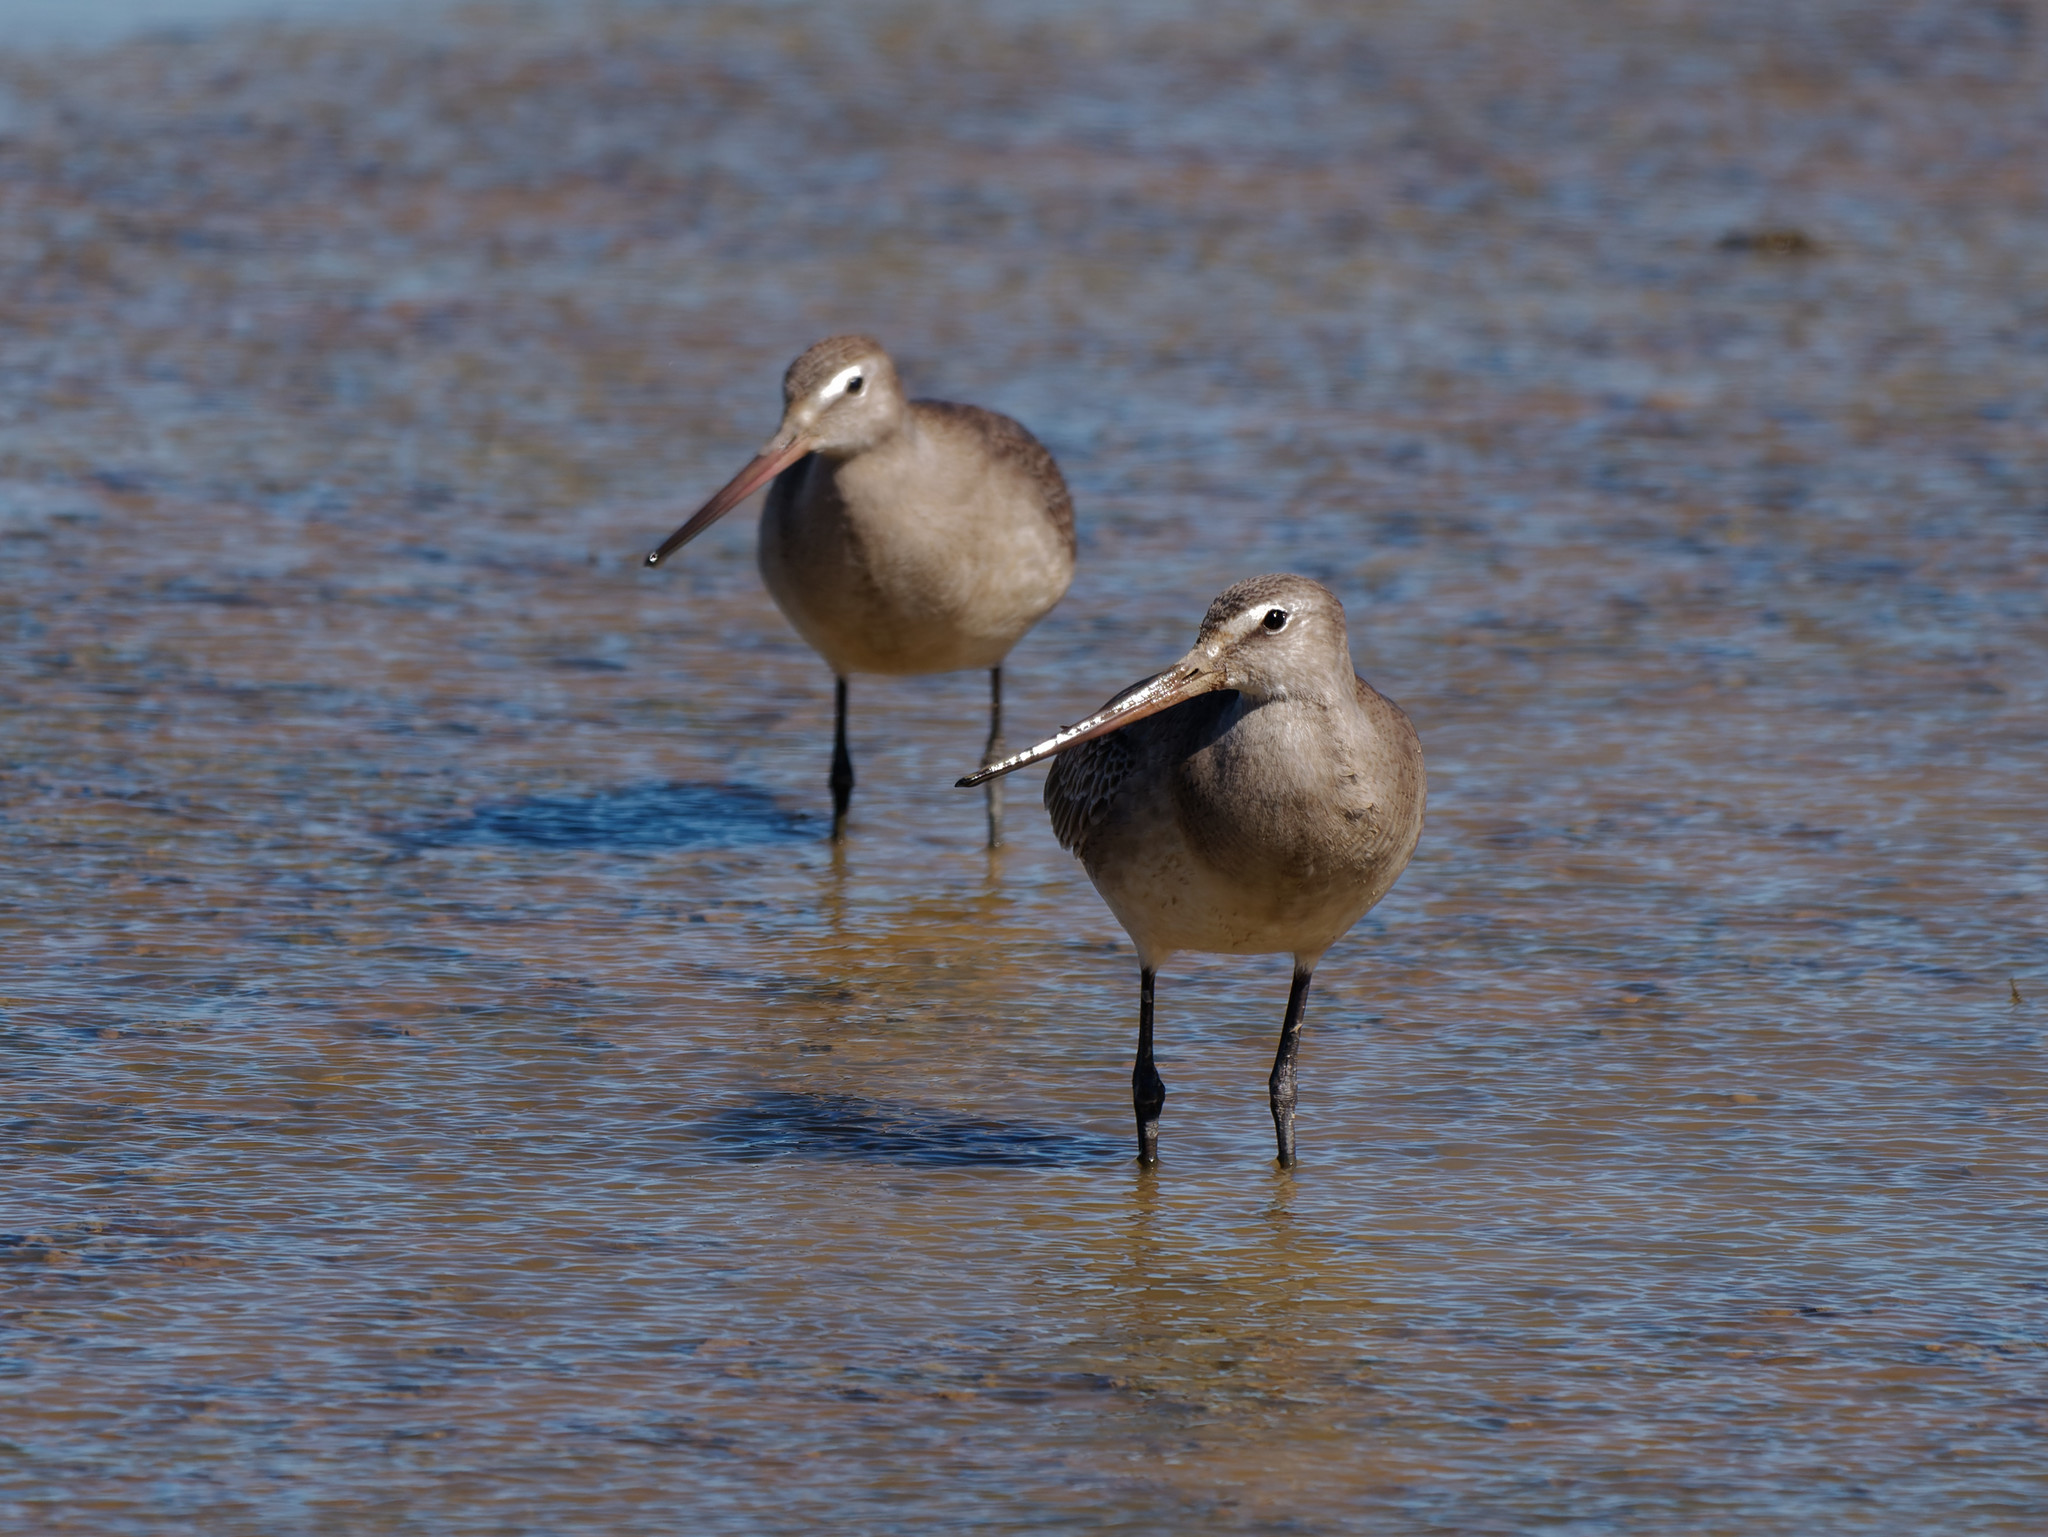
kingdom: Animalia
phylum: Chordata
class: Aves
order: Charadriiformes
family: Scolopacidae
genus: Limosa
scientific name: Limosa haemastica
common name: Hudsonian godwit
